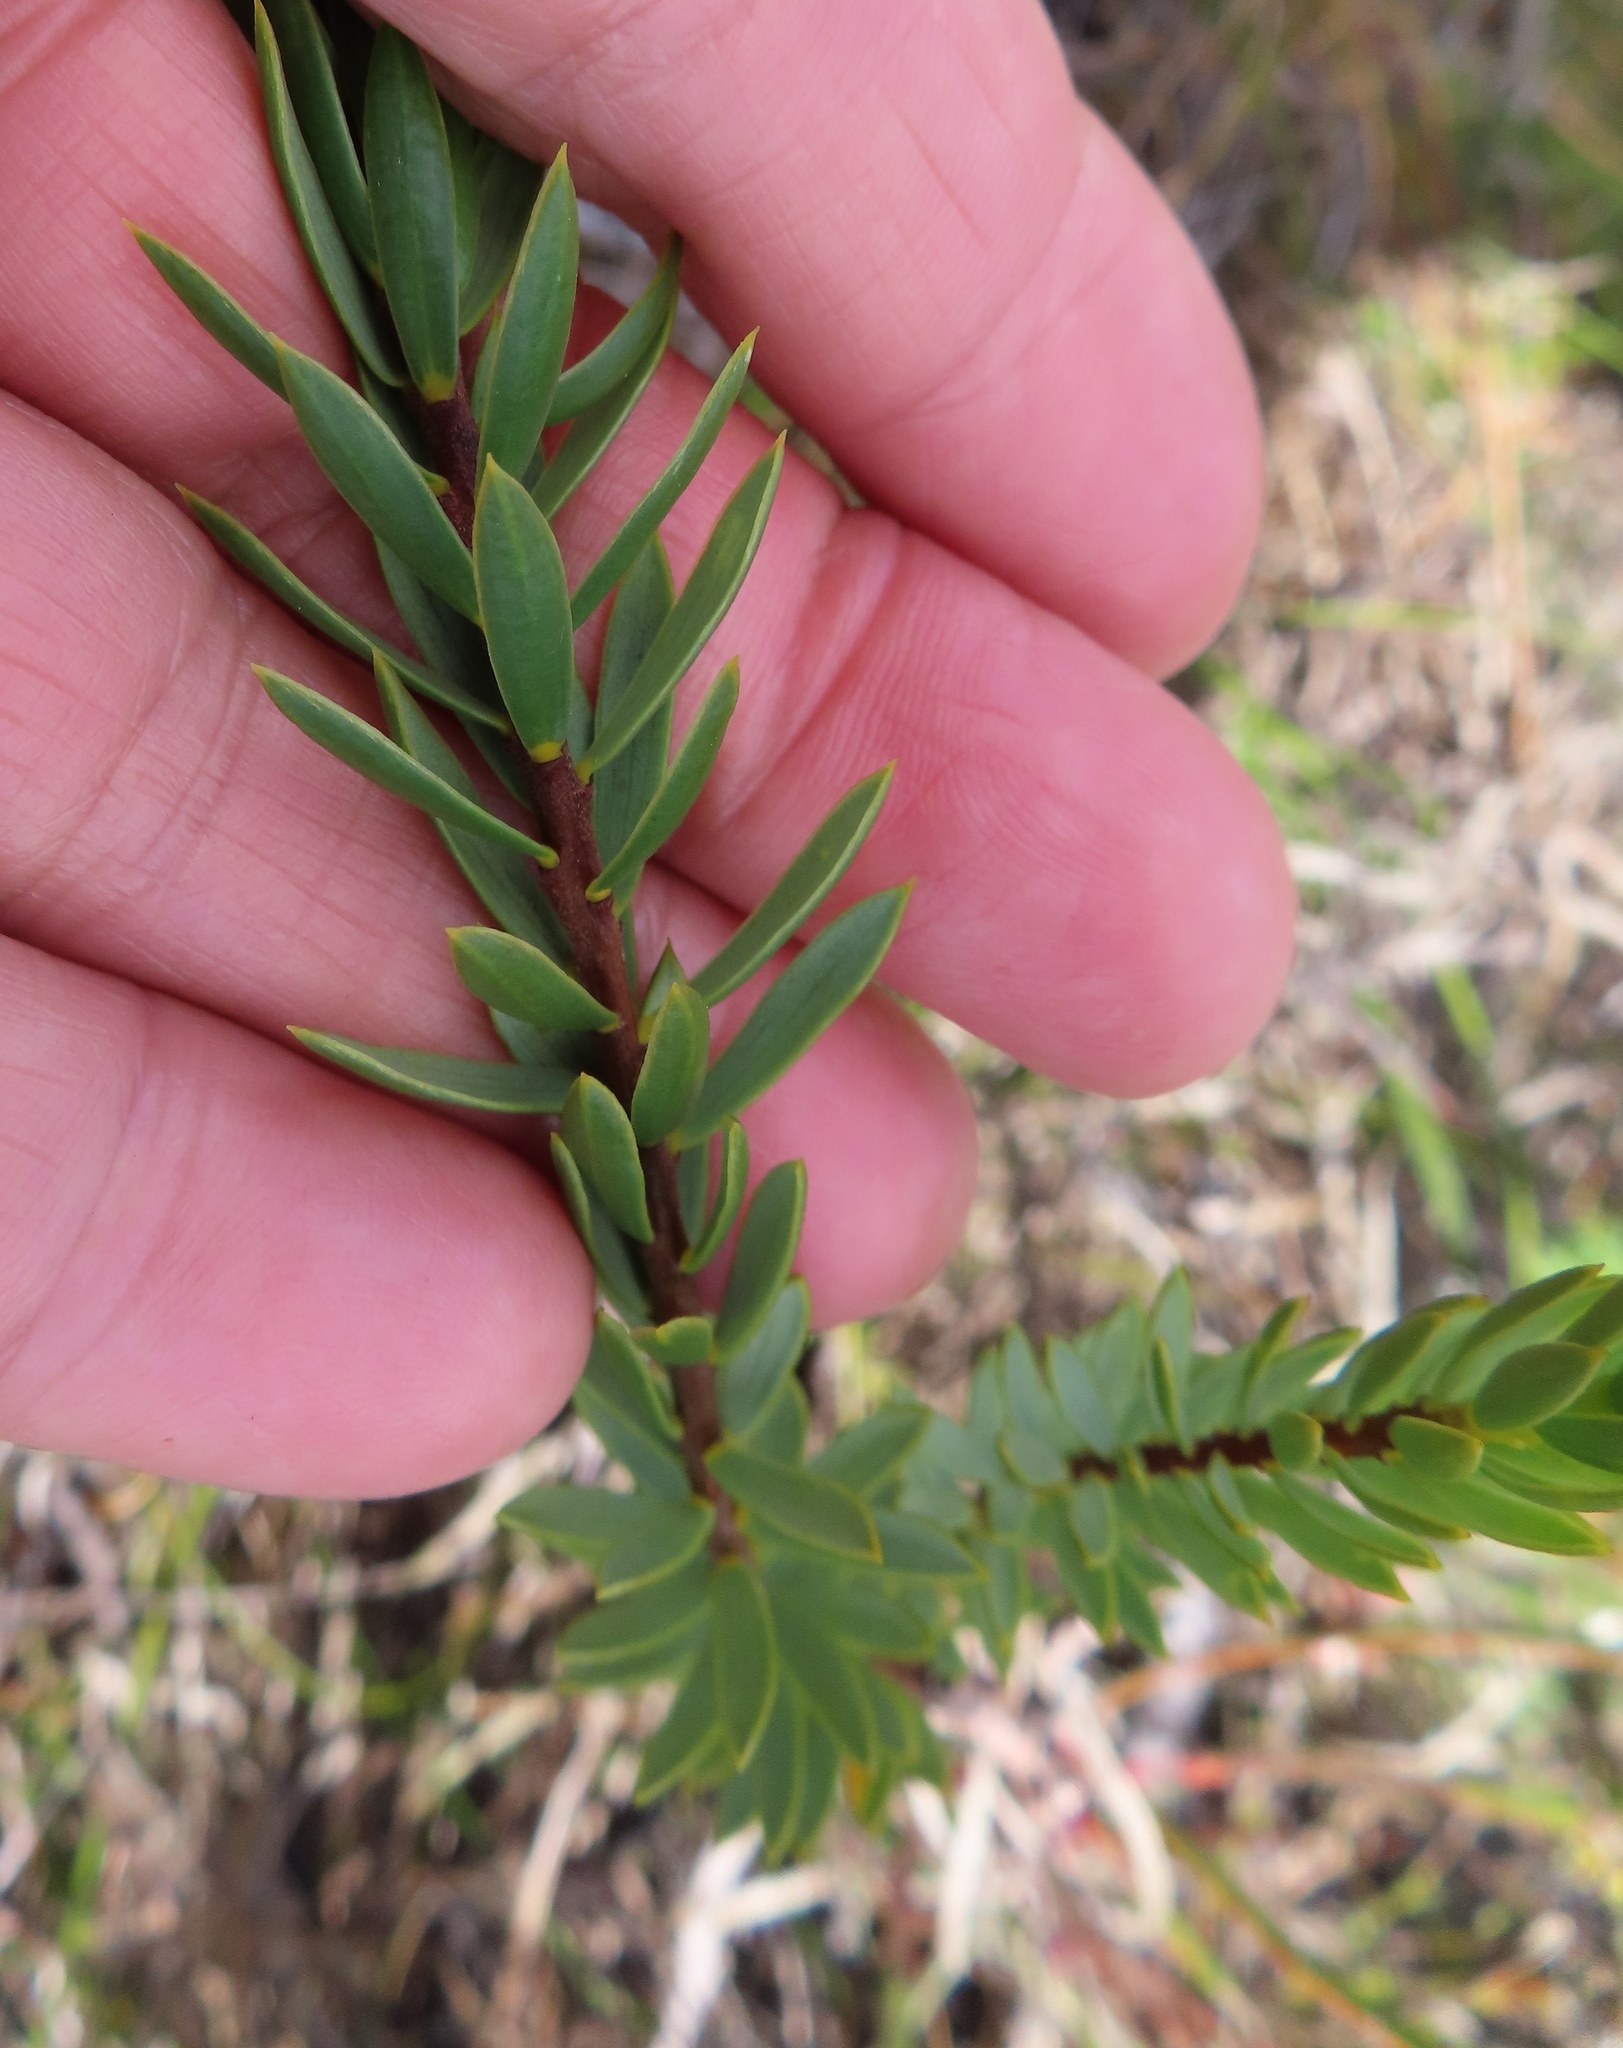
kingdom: Plantae
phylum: Tracheophyta
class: Magnoliopsida
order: Malvales
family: Thymelaeaceae
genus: Lachnaea
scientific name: Lachnaea aurea
